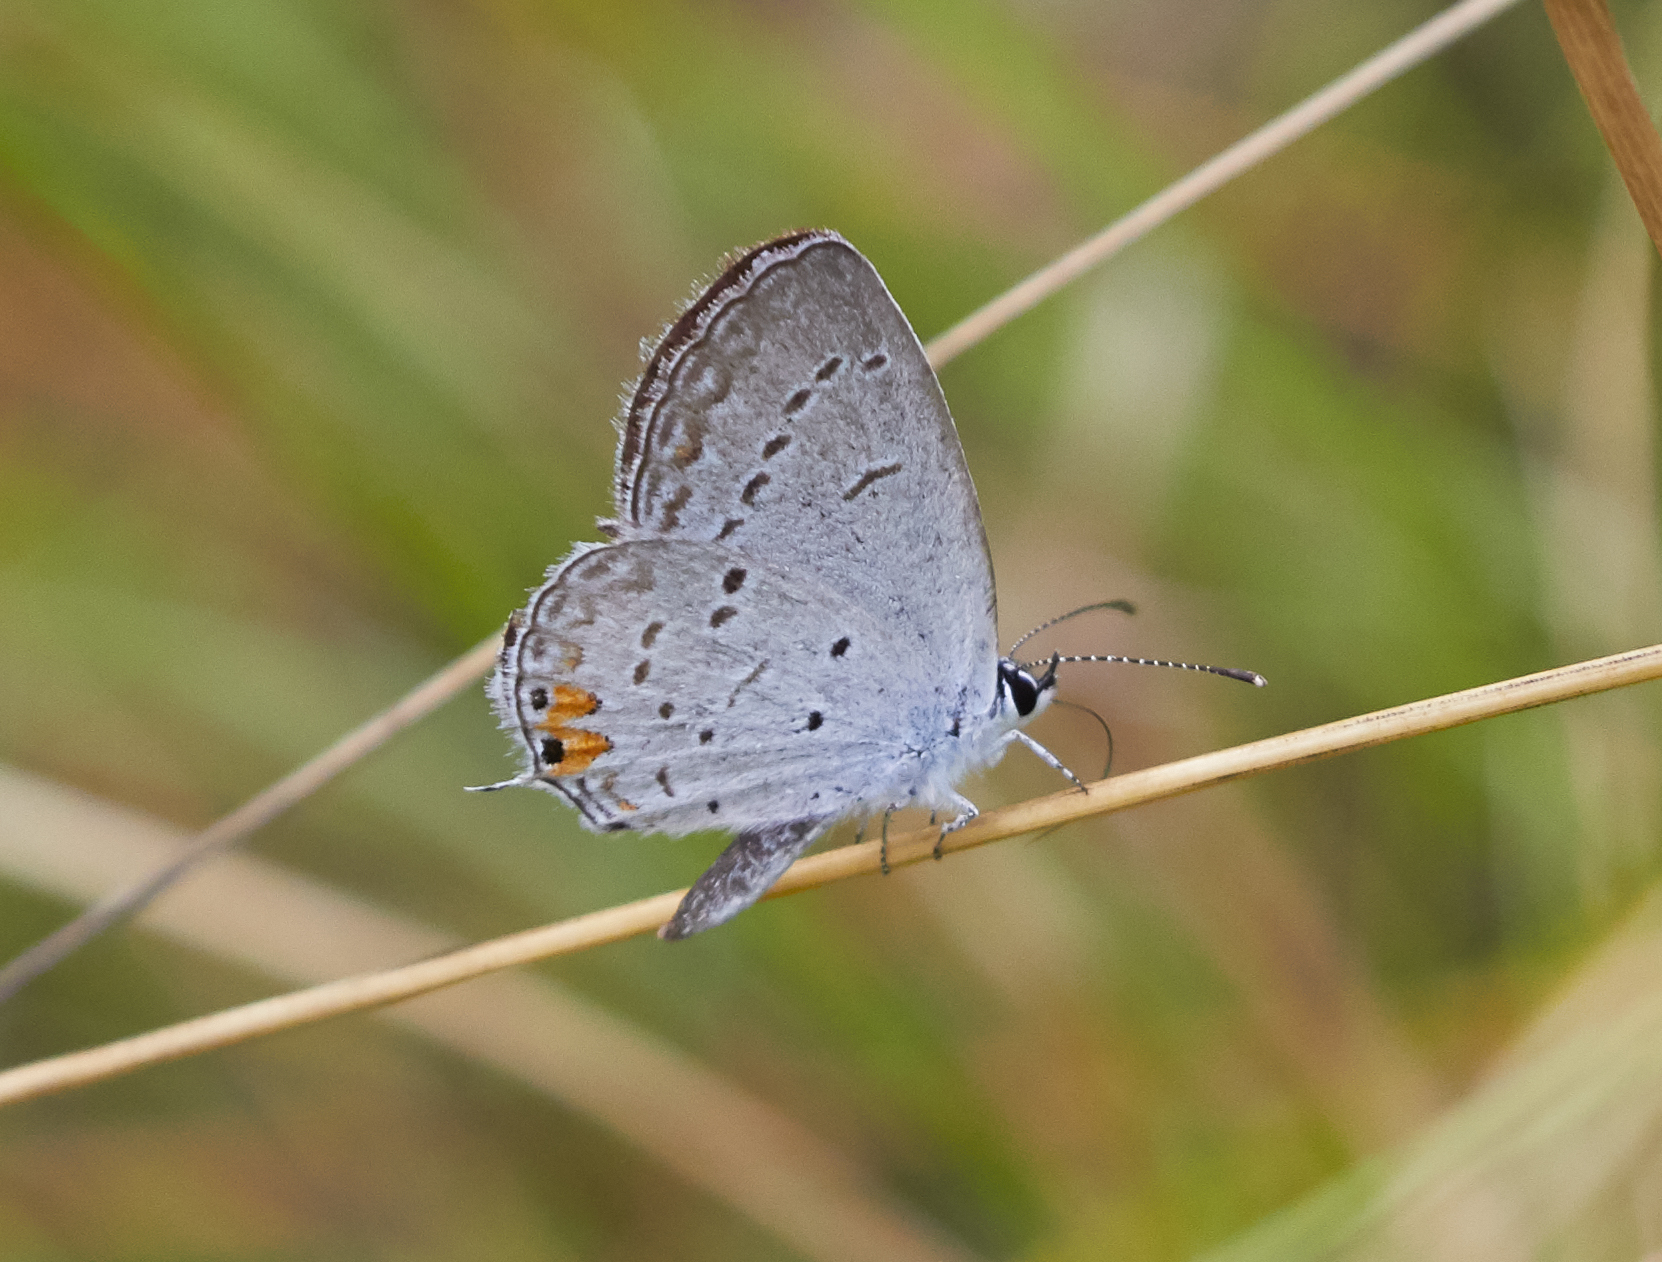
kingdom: Animalia
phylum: Arthropoda
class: Insecta
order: Lepidoptera
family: Lycaenidae
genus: Elkalyce
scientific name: Elkalyce comyntas
